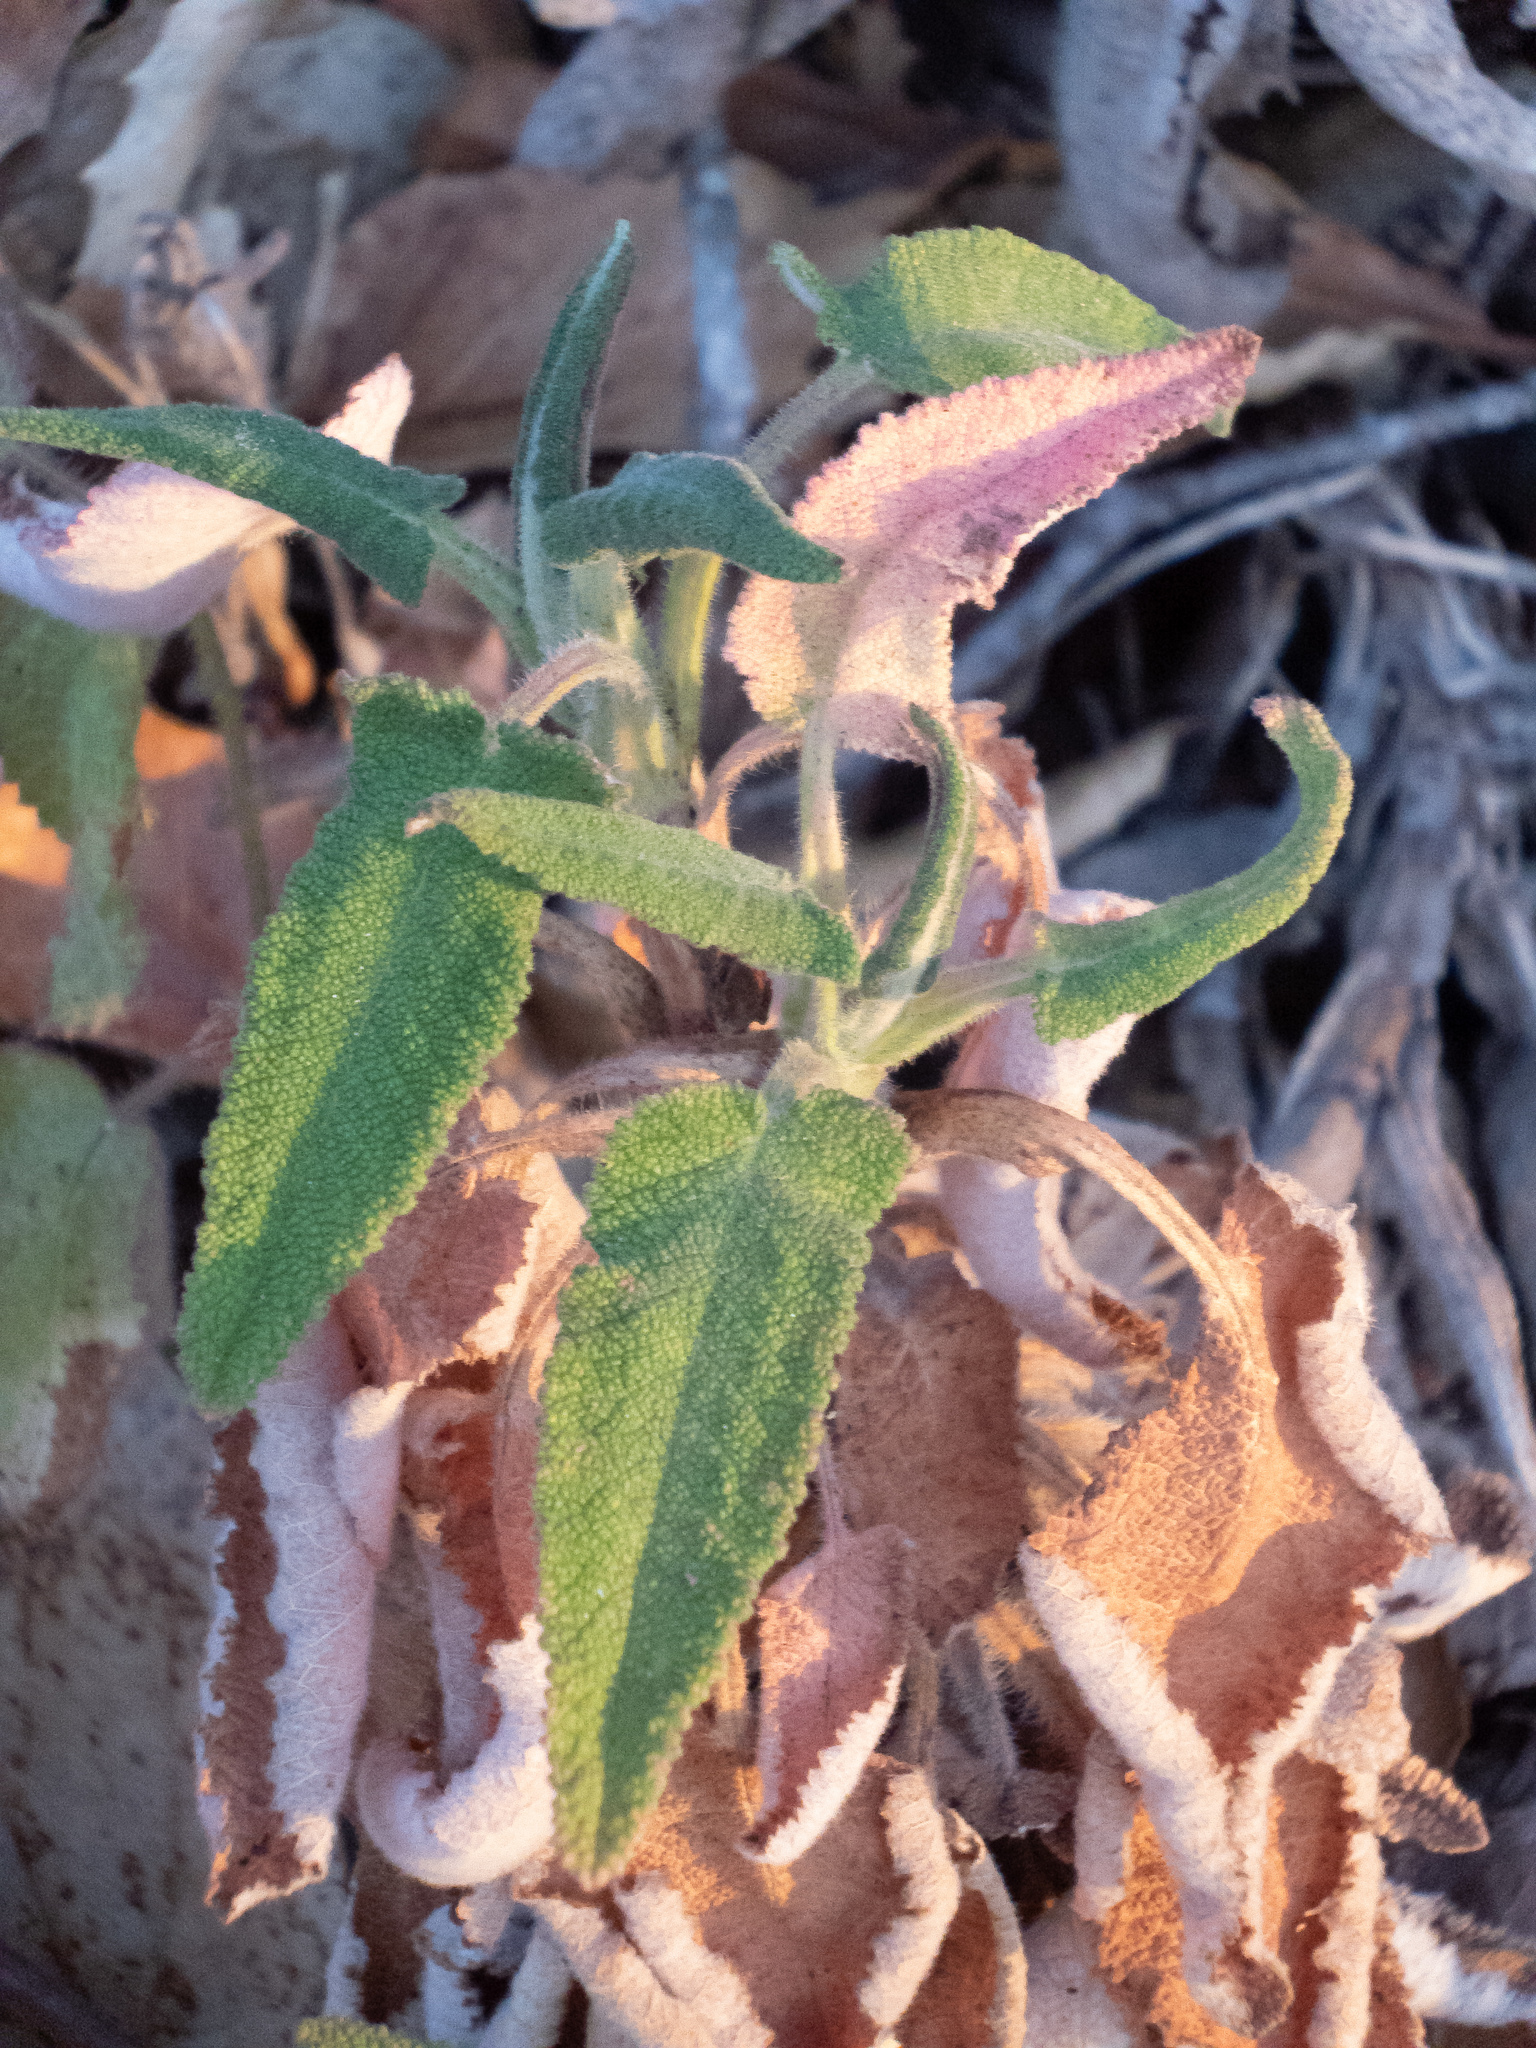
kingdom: Plantae
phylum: Tracheophyta
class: Magnoliopsida
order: Lamiales
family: Lamiaceae
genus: Salvia
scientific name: Salvia spathacea
